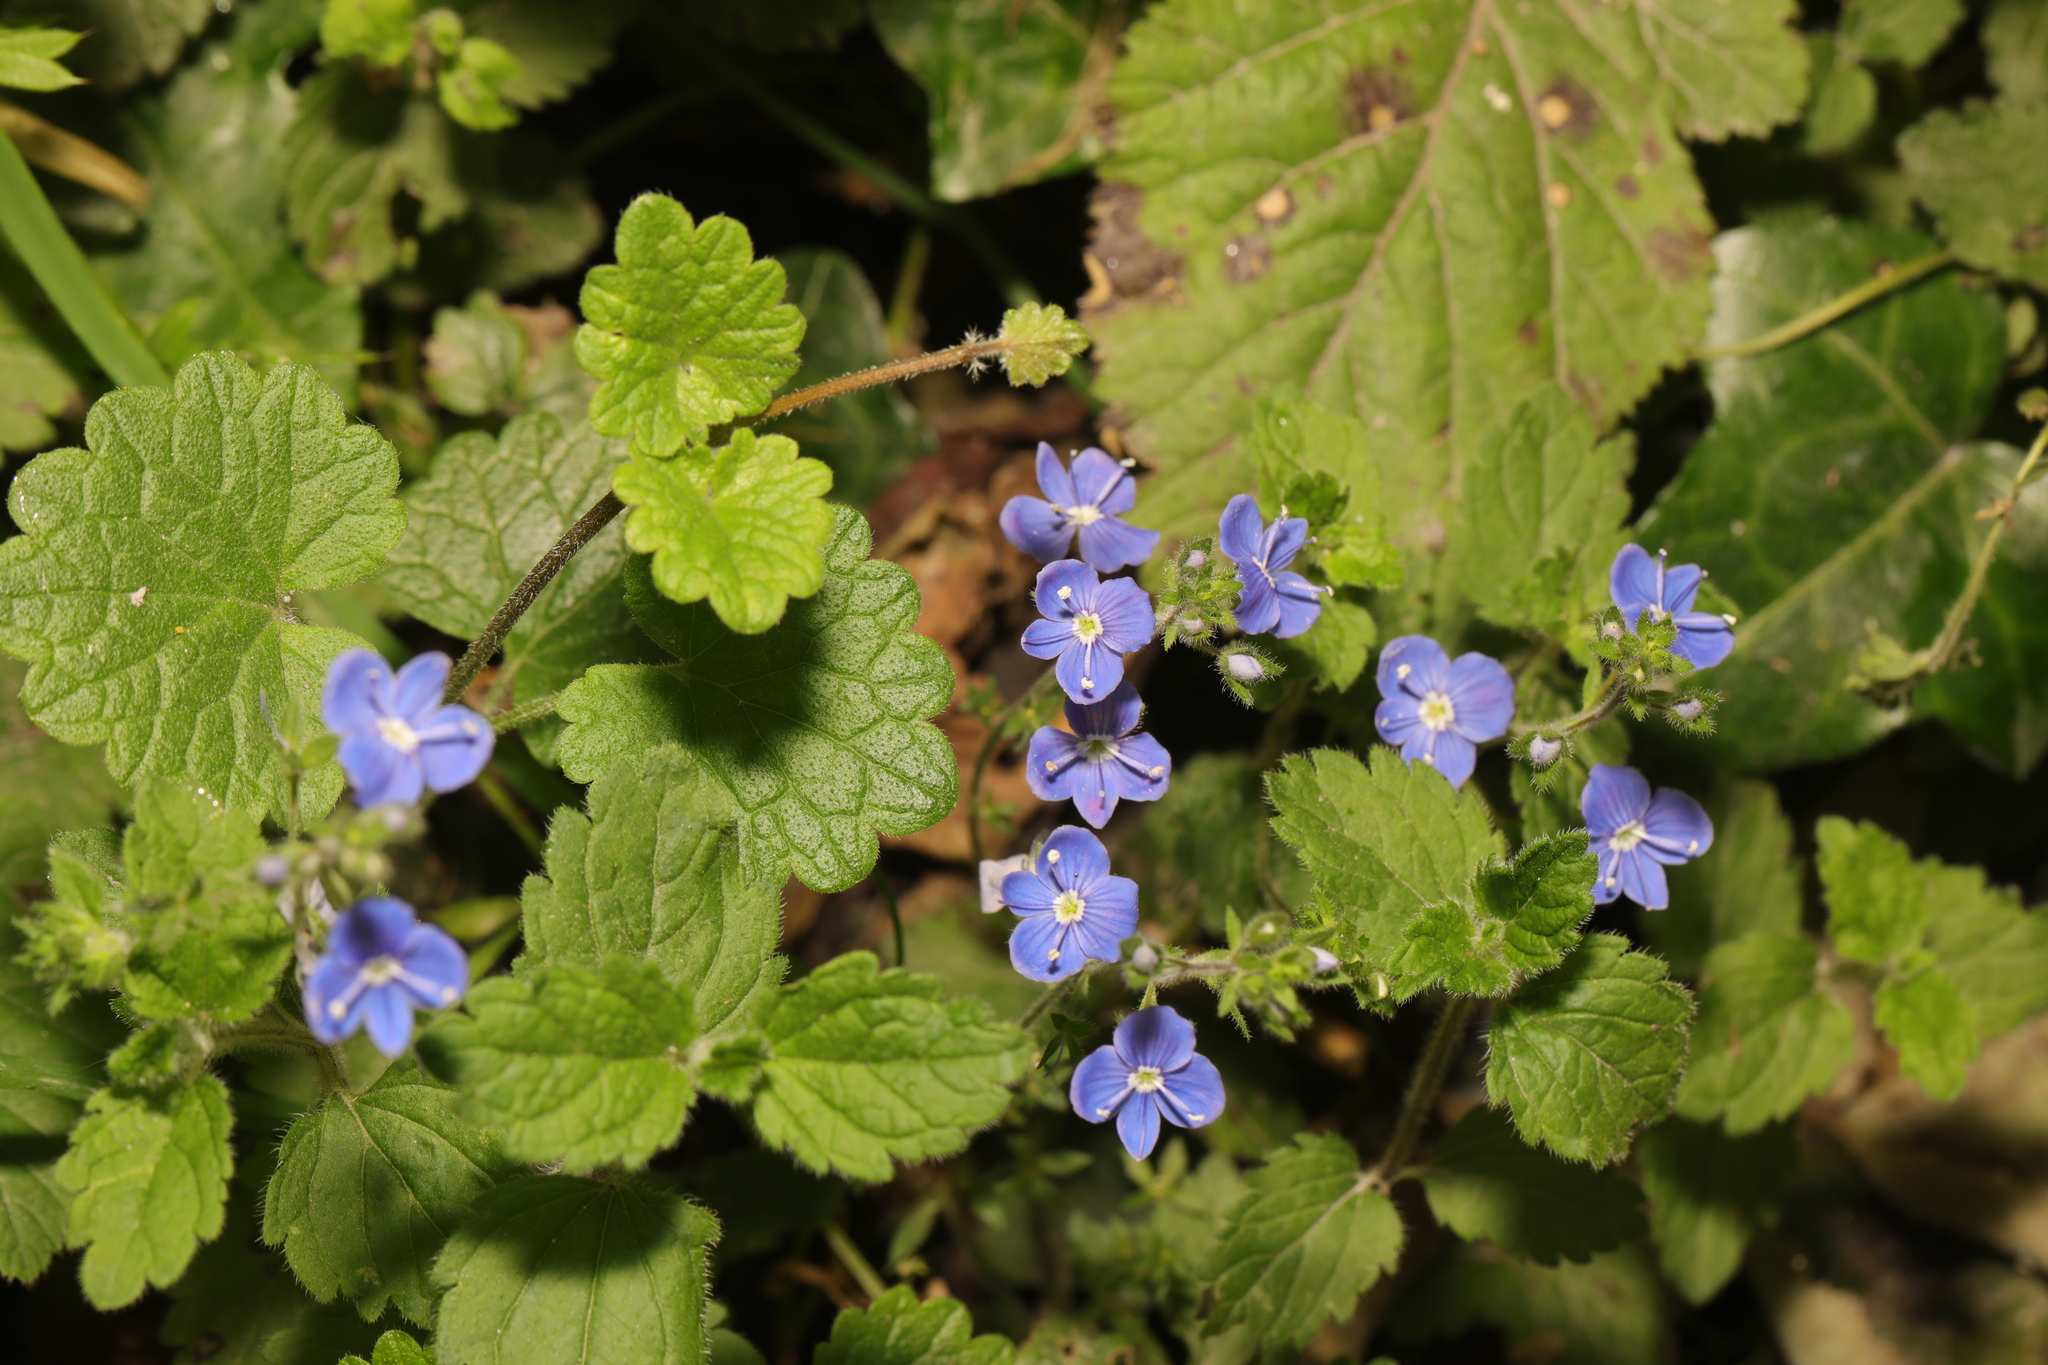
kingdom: Plantae
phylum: Tracheophyta
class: Magnoliopsida
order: Lamiales
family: Plantaginaceae
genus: Veronica
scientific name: Veronica chamaedrys
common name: Germander speedwell
